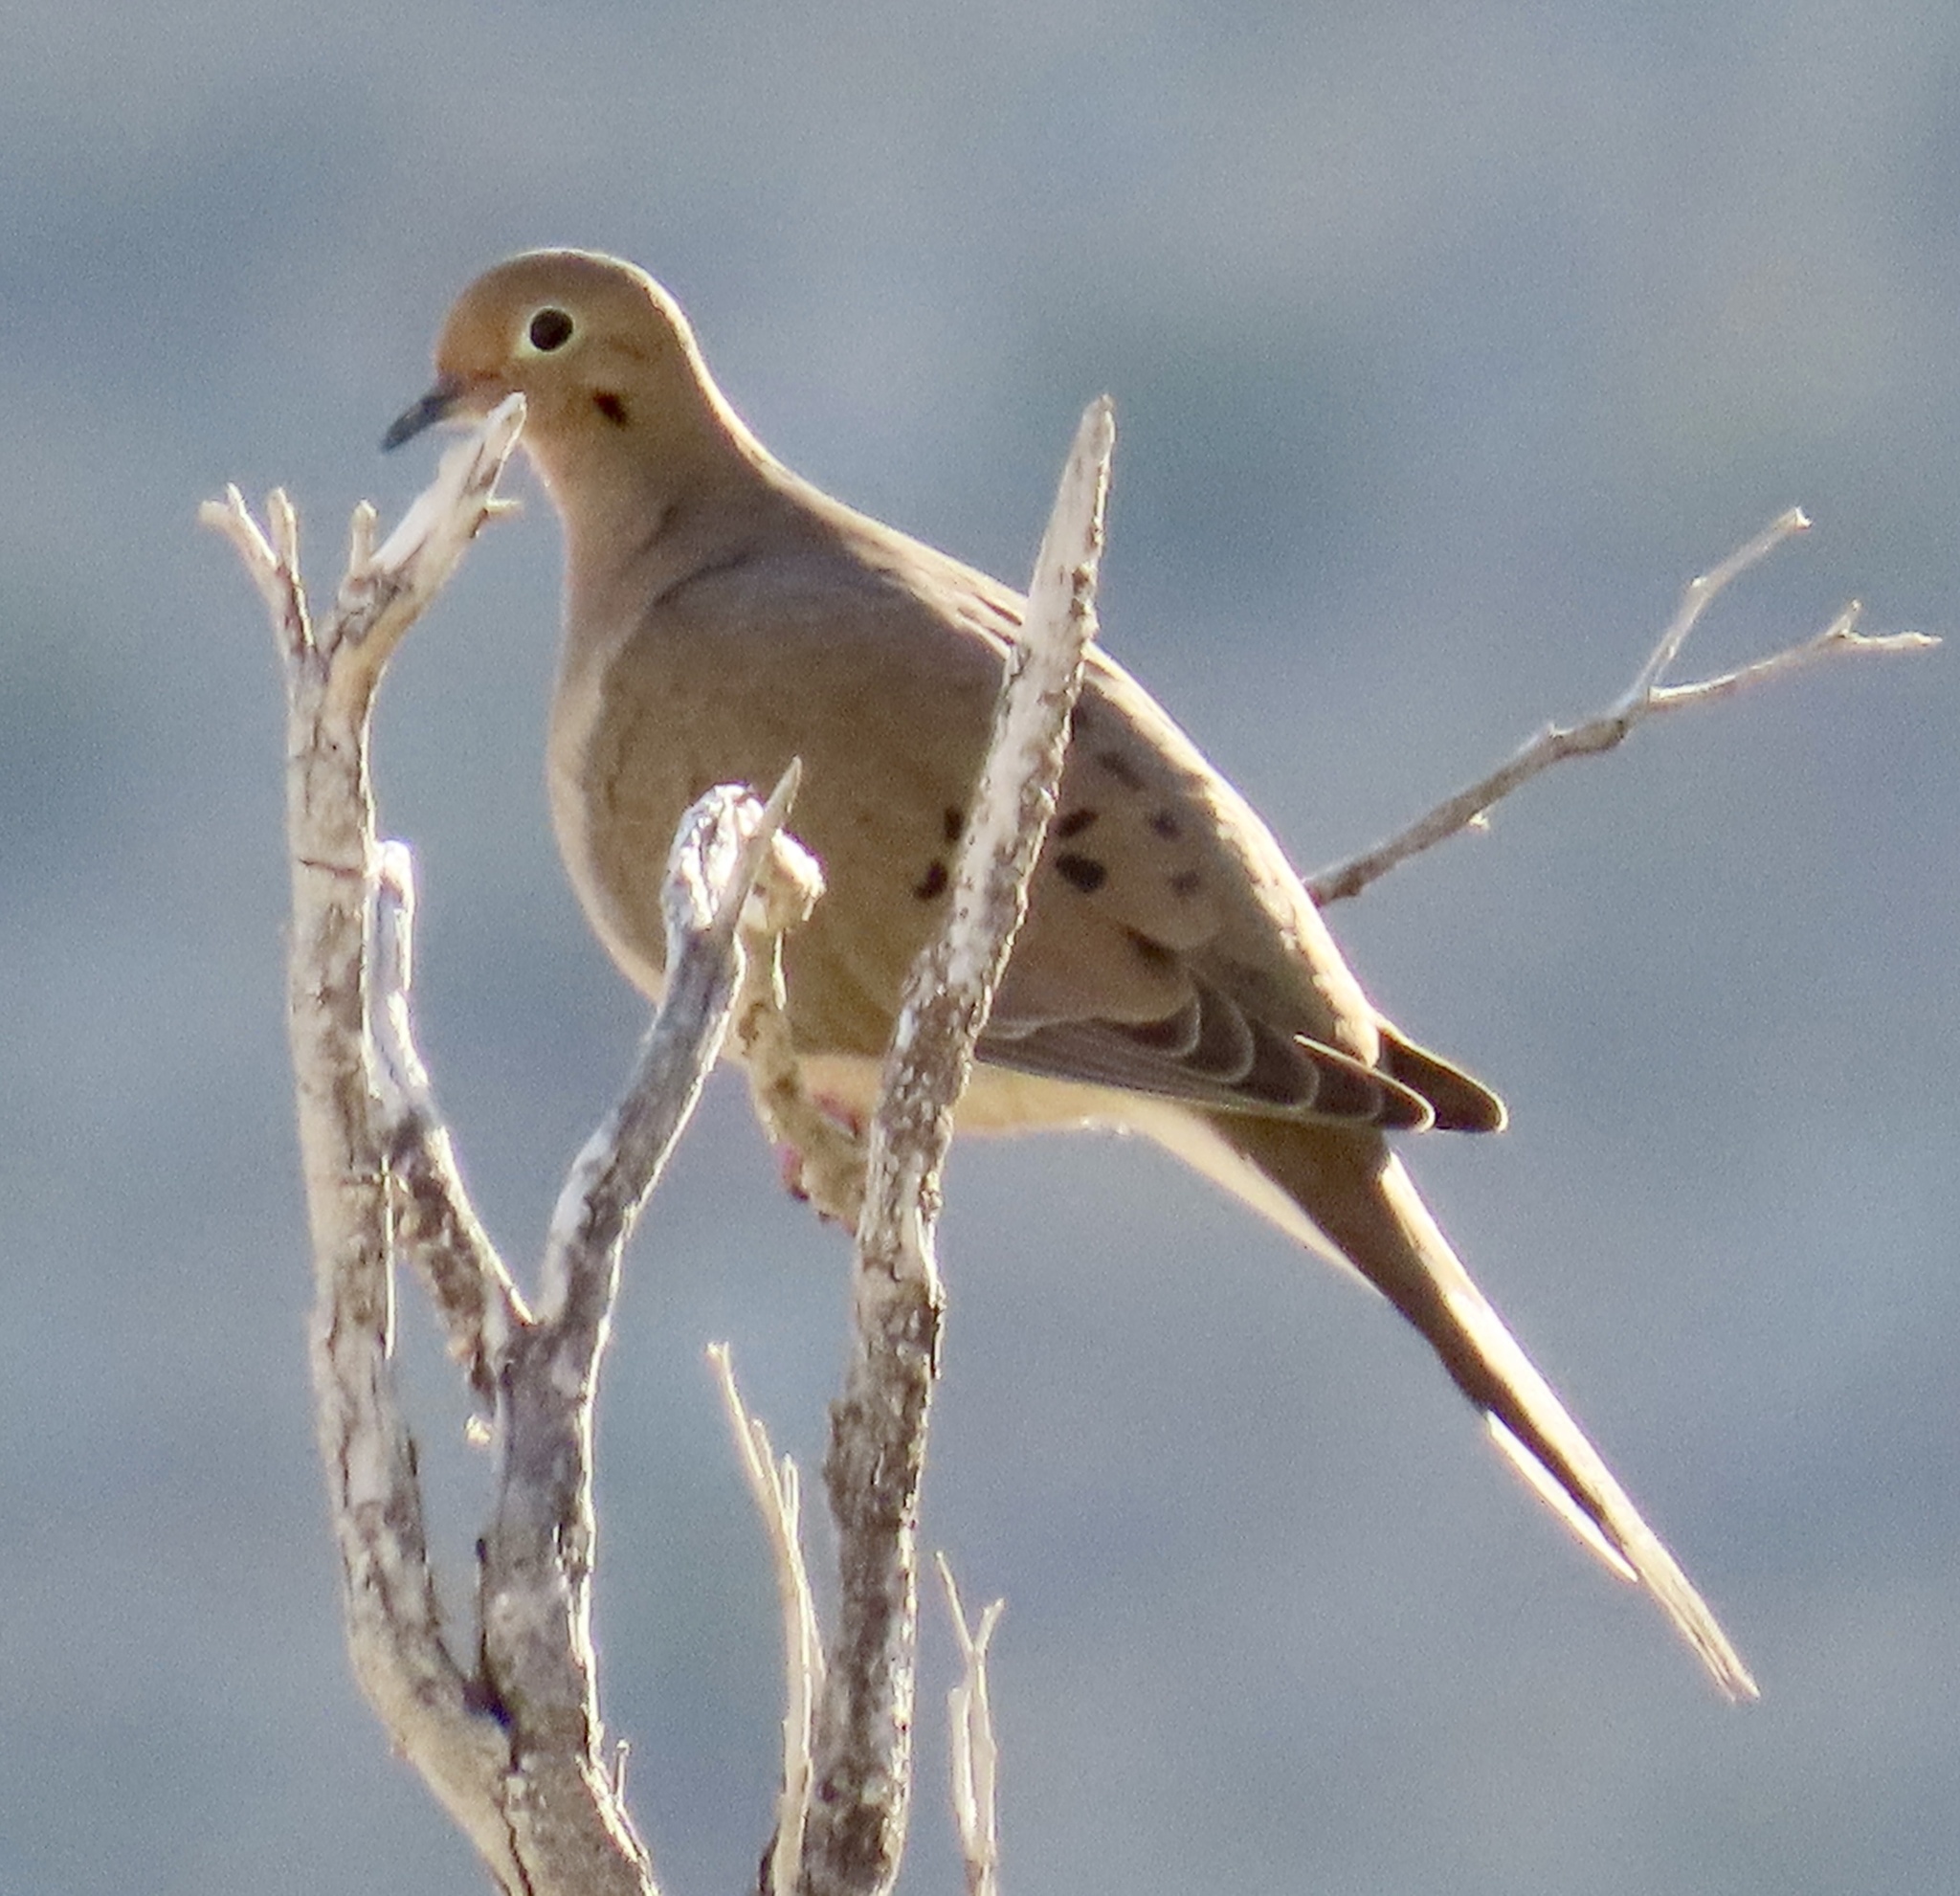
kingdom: Animalia
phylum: Chordata
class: Aves
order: Columbiformes
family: Columbidae
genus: Zenaida
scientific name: Zenaida macroura
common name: Mourning dove
